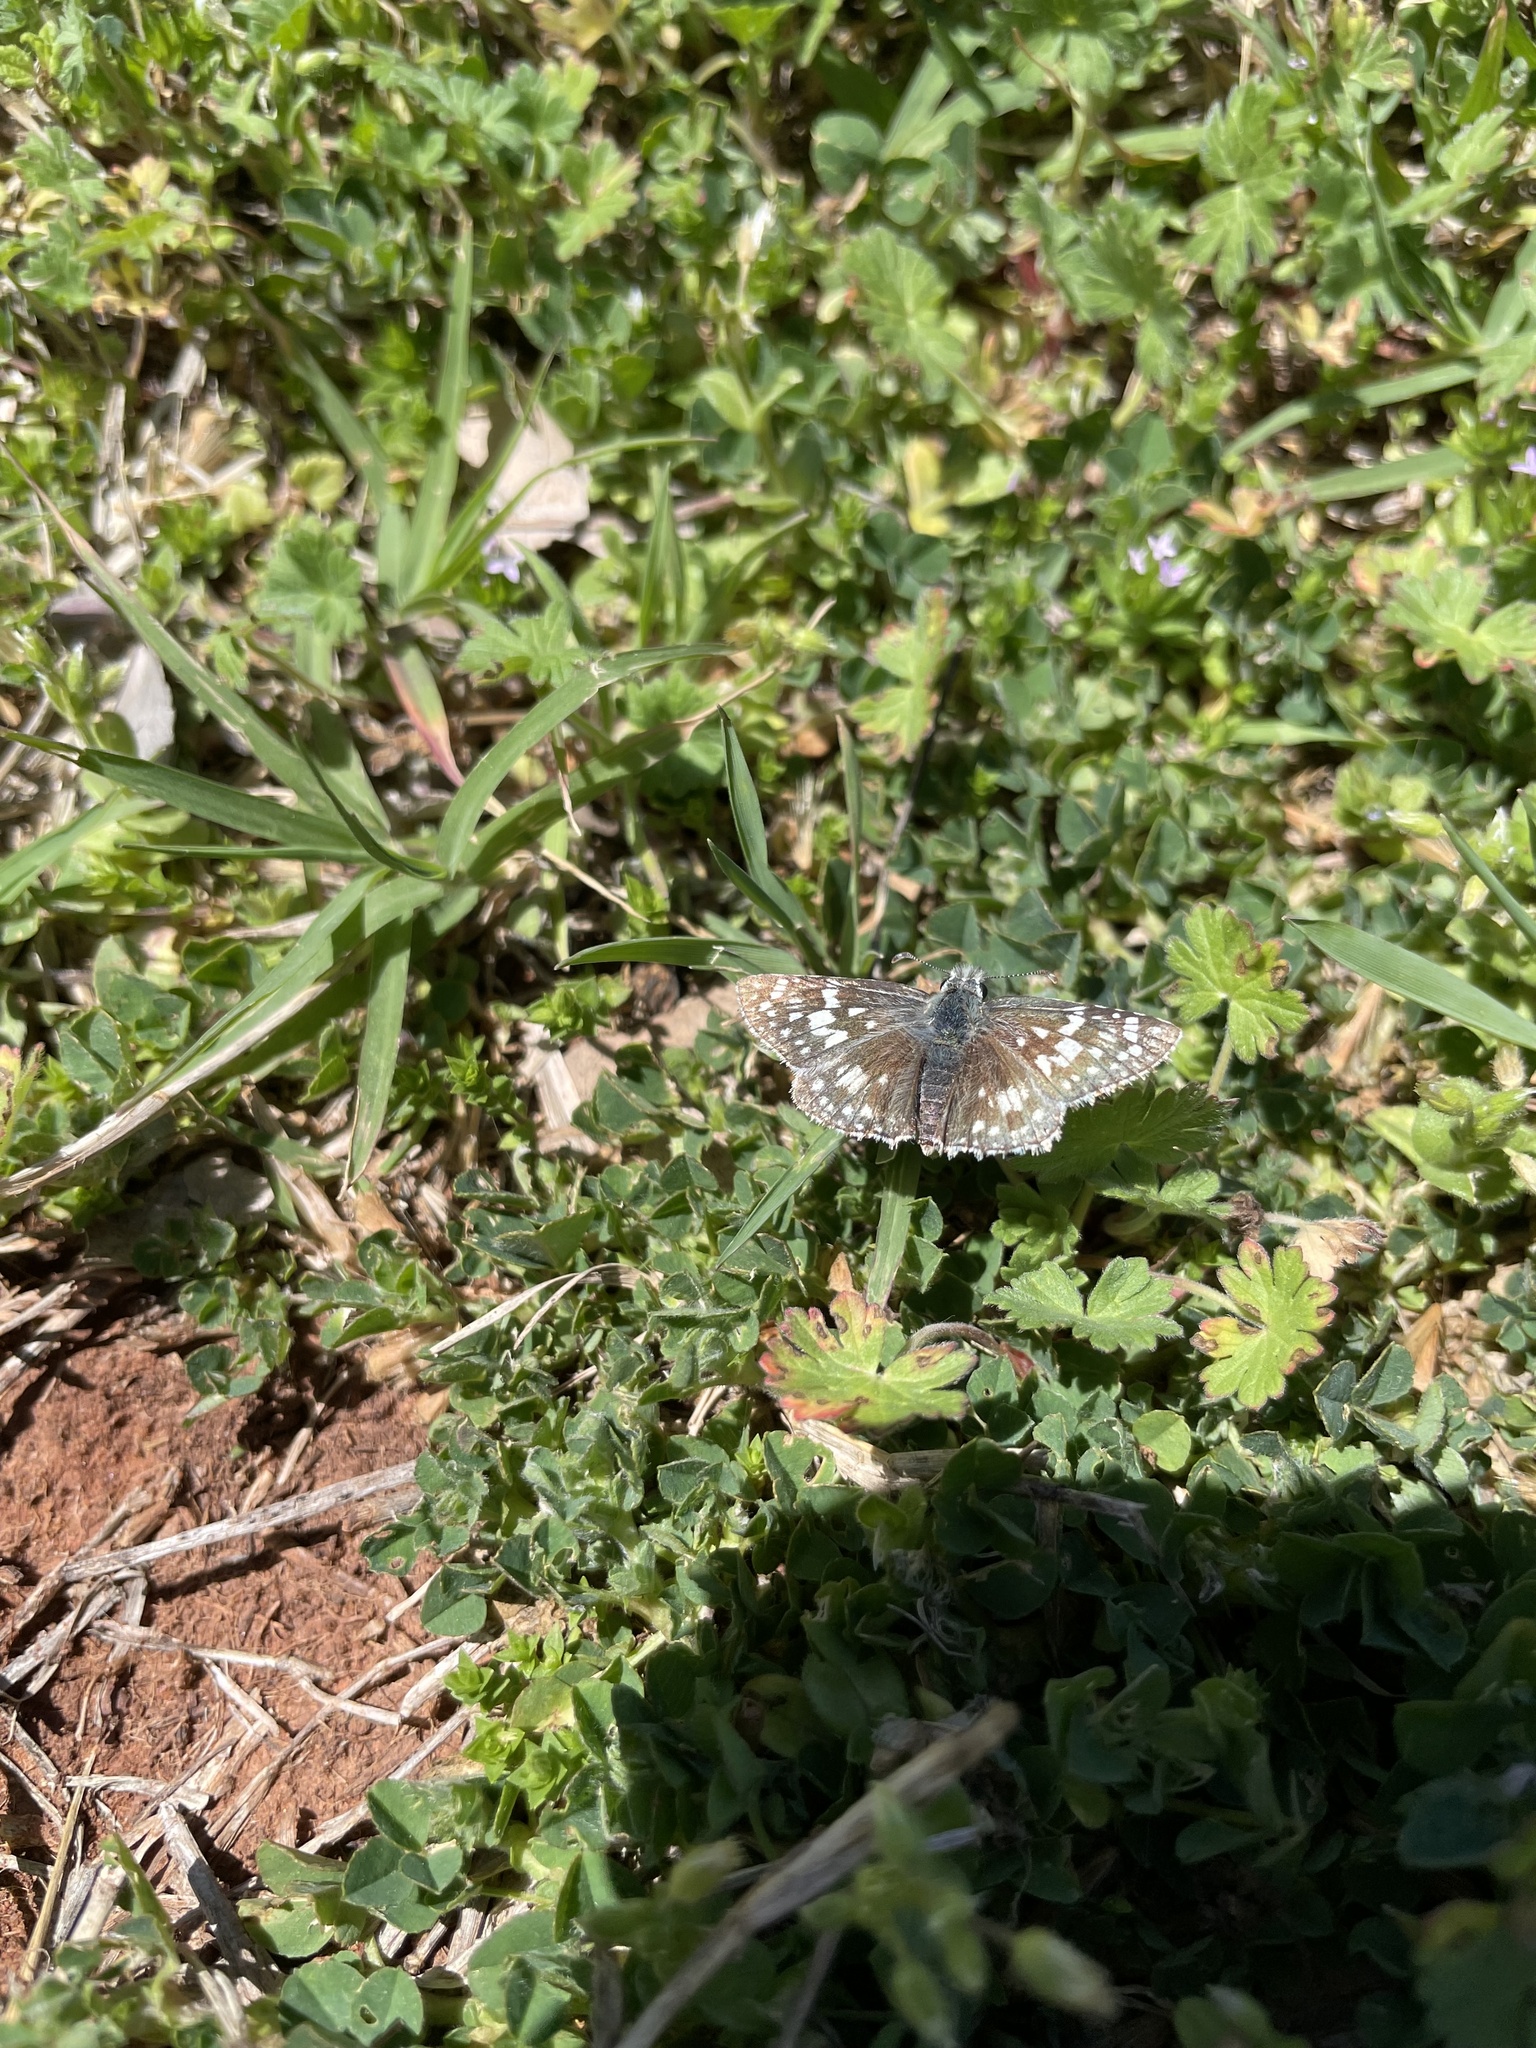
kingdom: Animalia
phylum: Arthropoda
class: Insecta
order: Lepidoptera
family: Hesperiidae
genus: Burnsius
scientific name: Burnsius communis
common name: Common checkered-skipper
